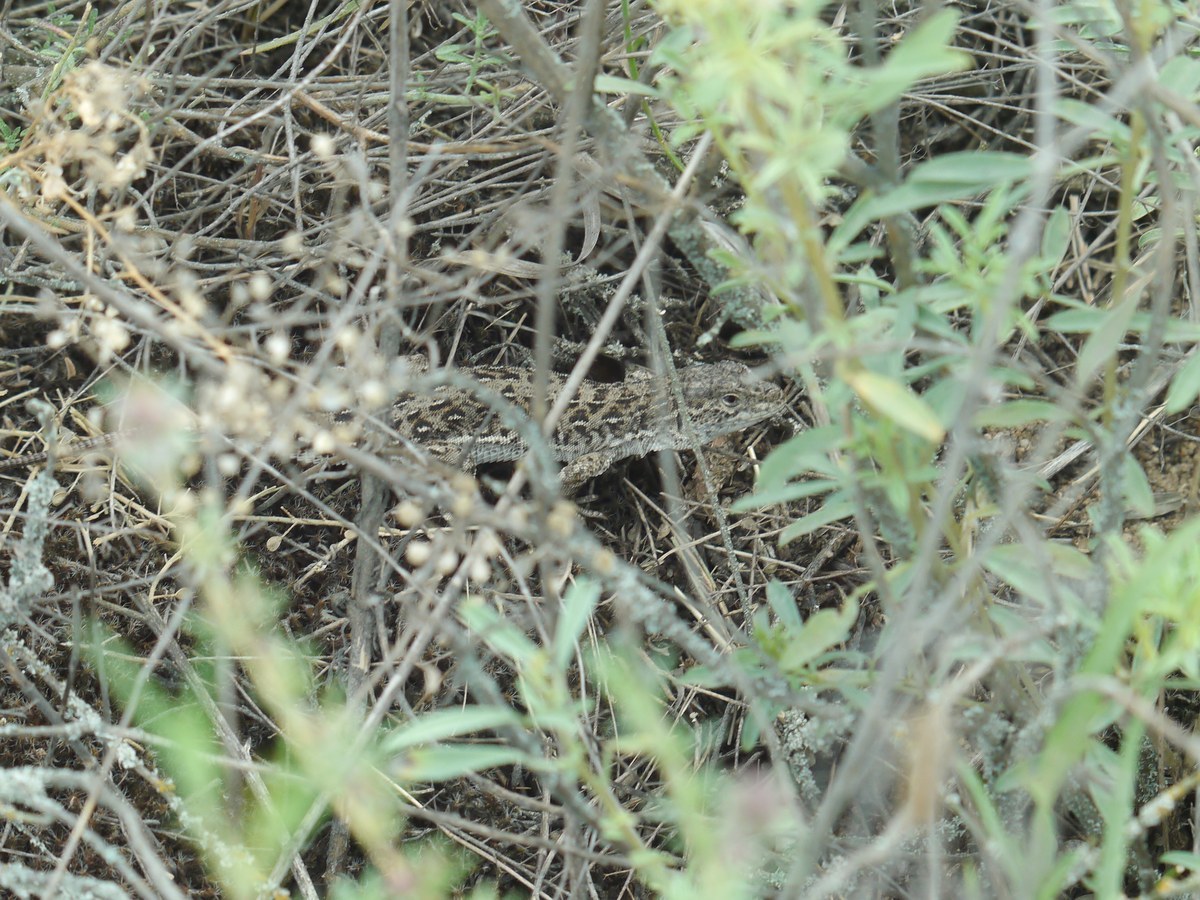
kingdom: Animalia
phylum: Chordata
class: Squamata
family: Lacertidae
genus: Eremias
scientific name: Eremias arguta
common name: Racerunner
